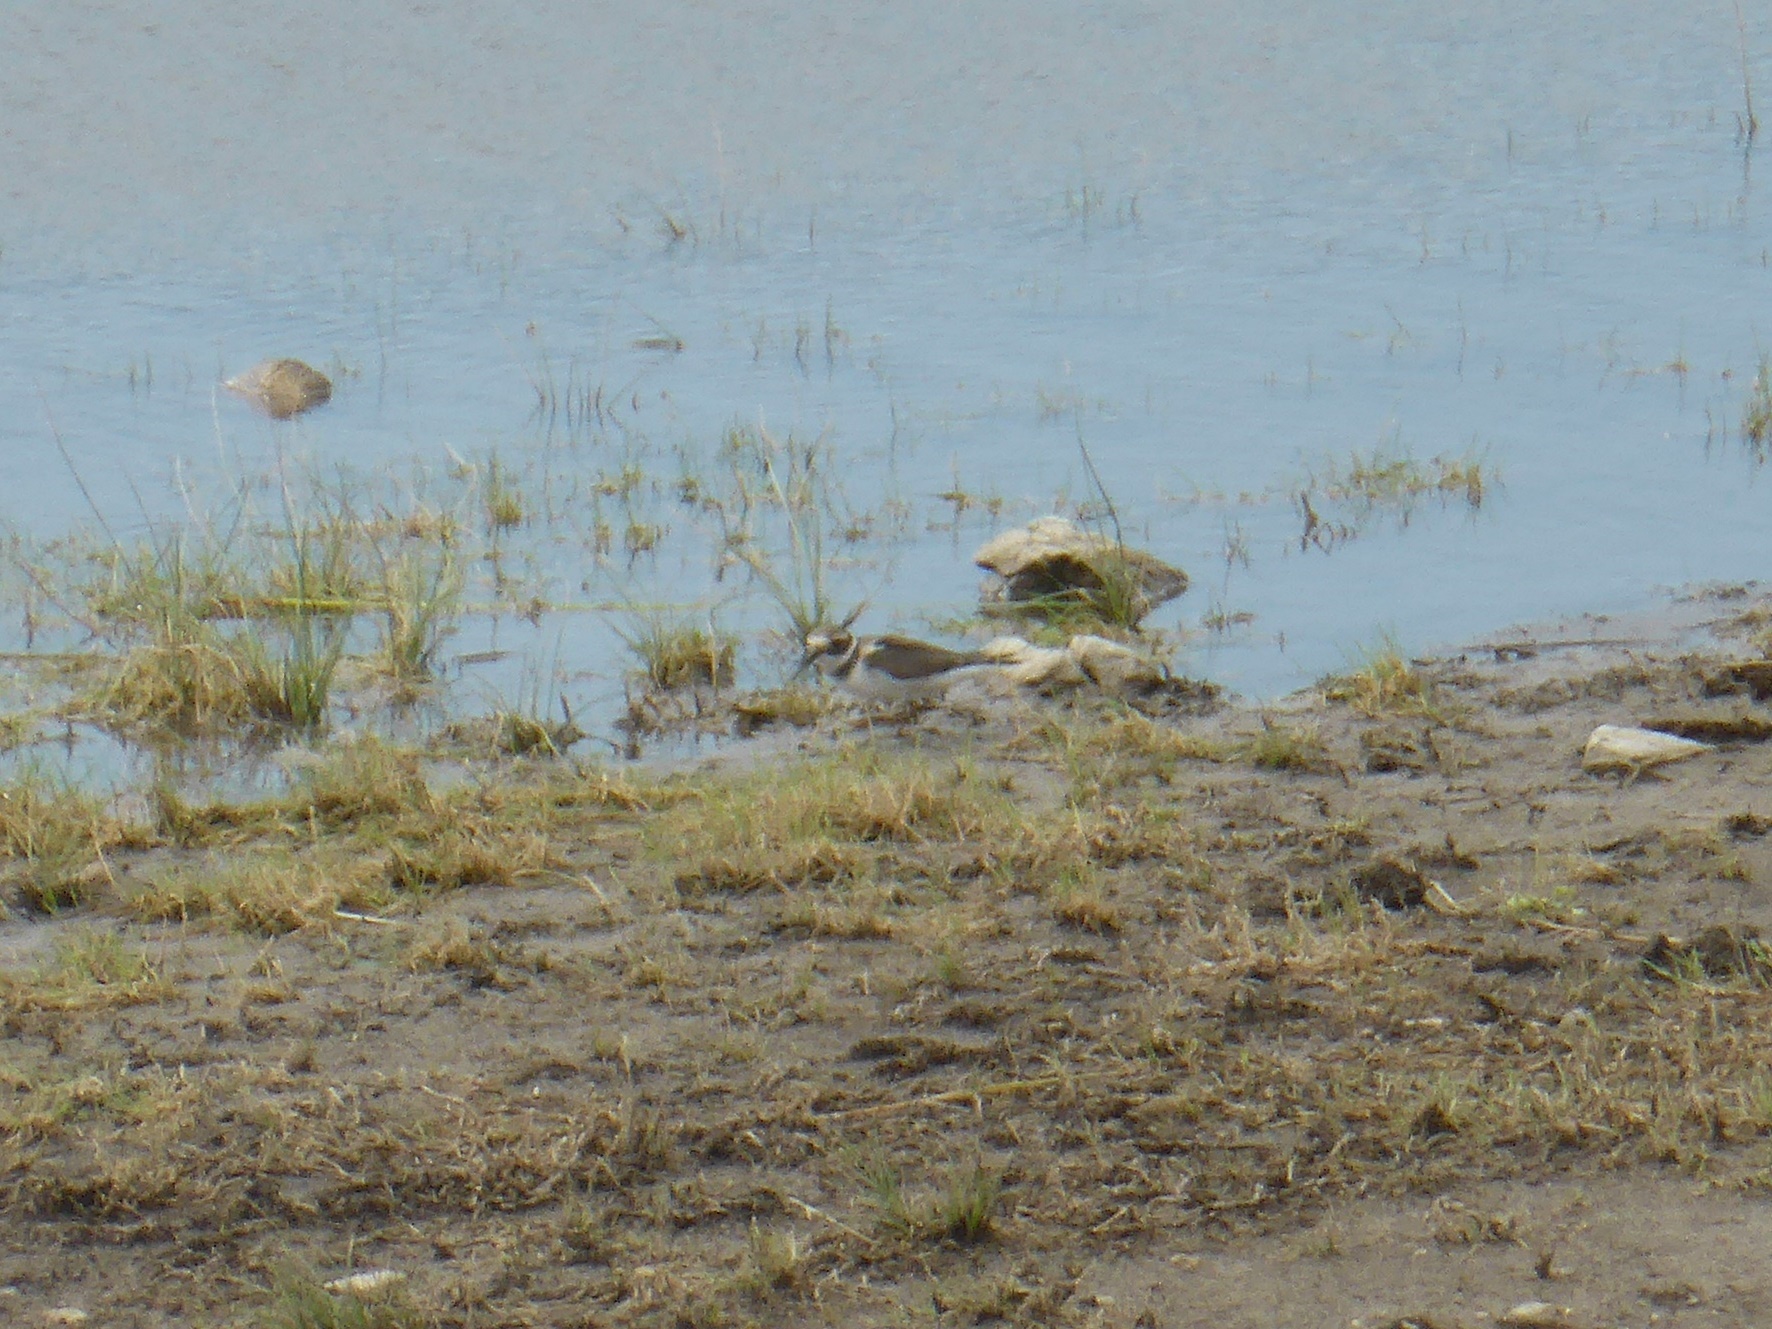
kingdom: Animalia
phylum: Chordata
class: Aves
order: Charadriiformes
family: Charadriidae
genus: Charadrius
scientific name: Charadrius hiaticula
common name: Common ringed plover
